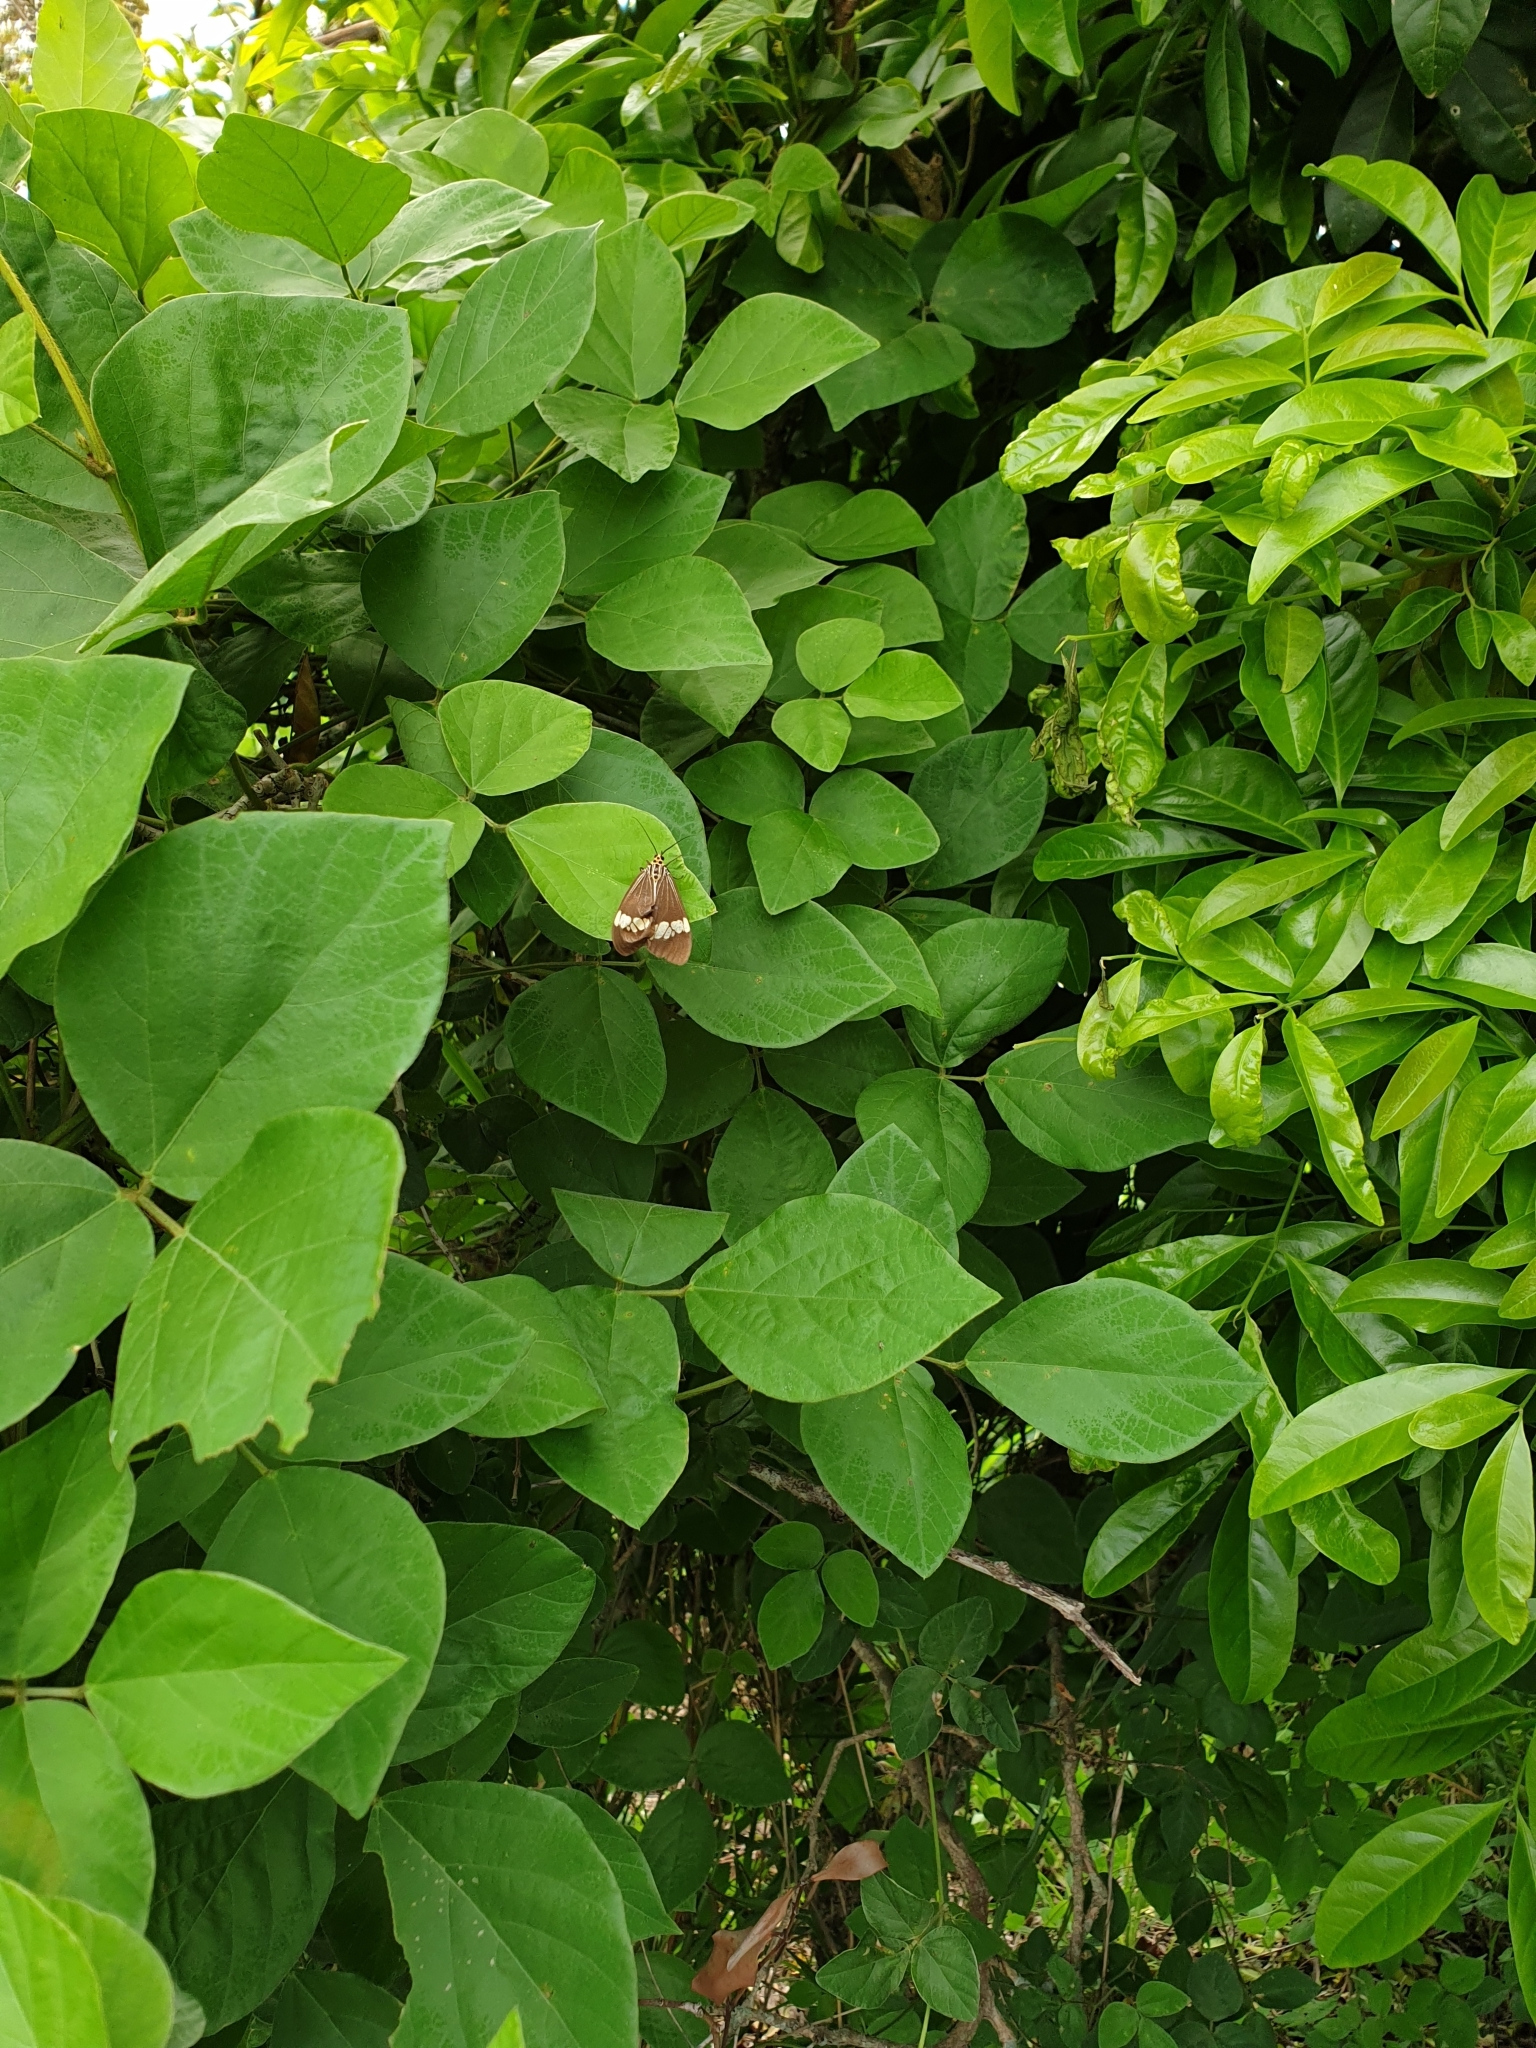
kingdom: Animalia
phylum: Arthropoda
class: Insecta
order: Lepidoptera
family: Erebidae
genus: Nyctemera
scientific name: Nyctemera baulus
